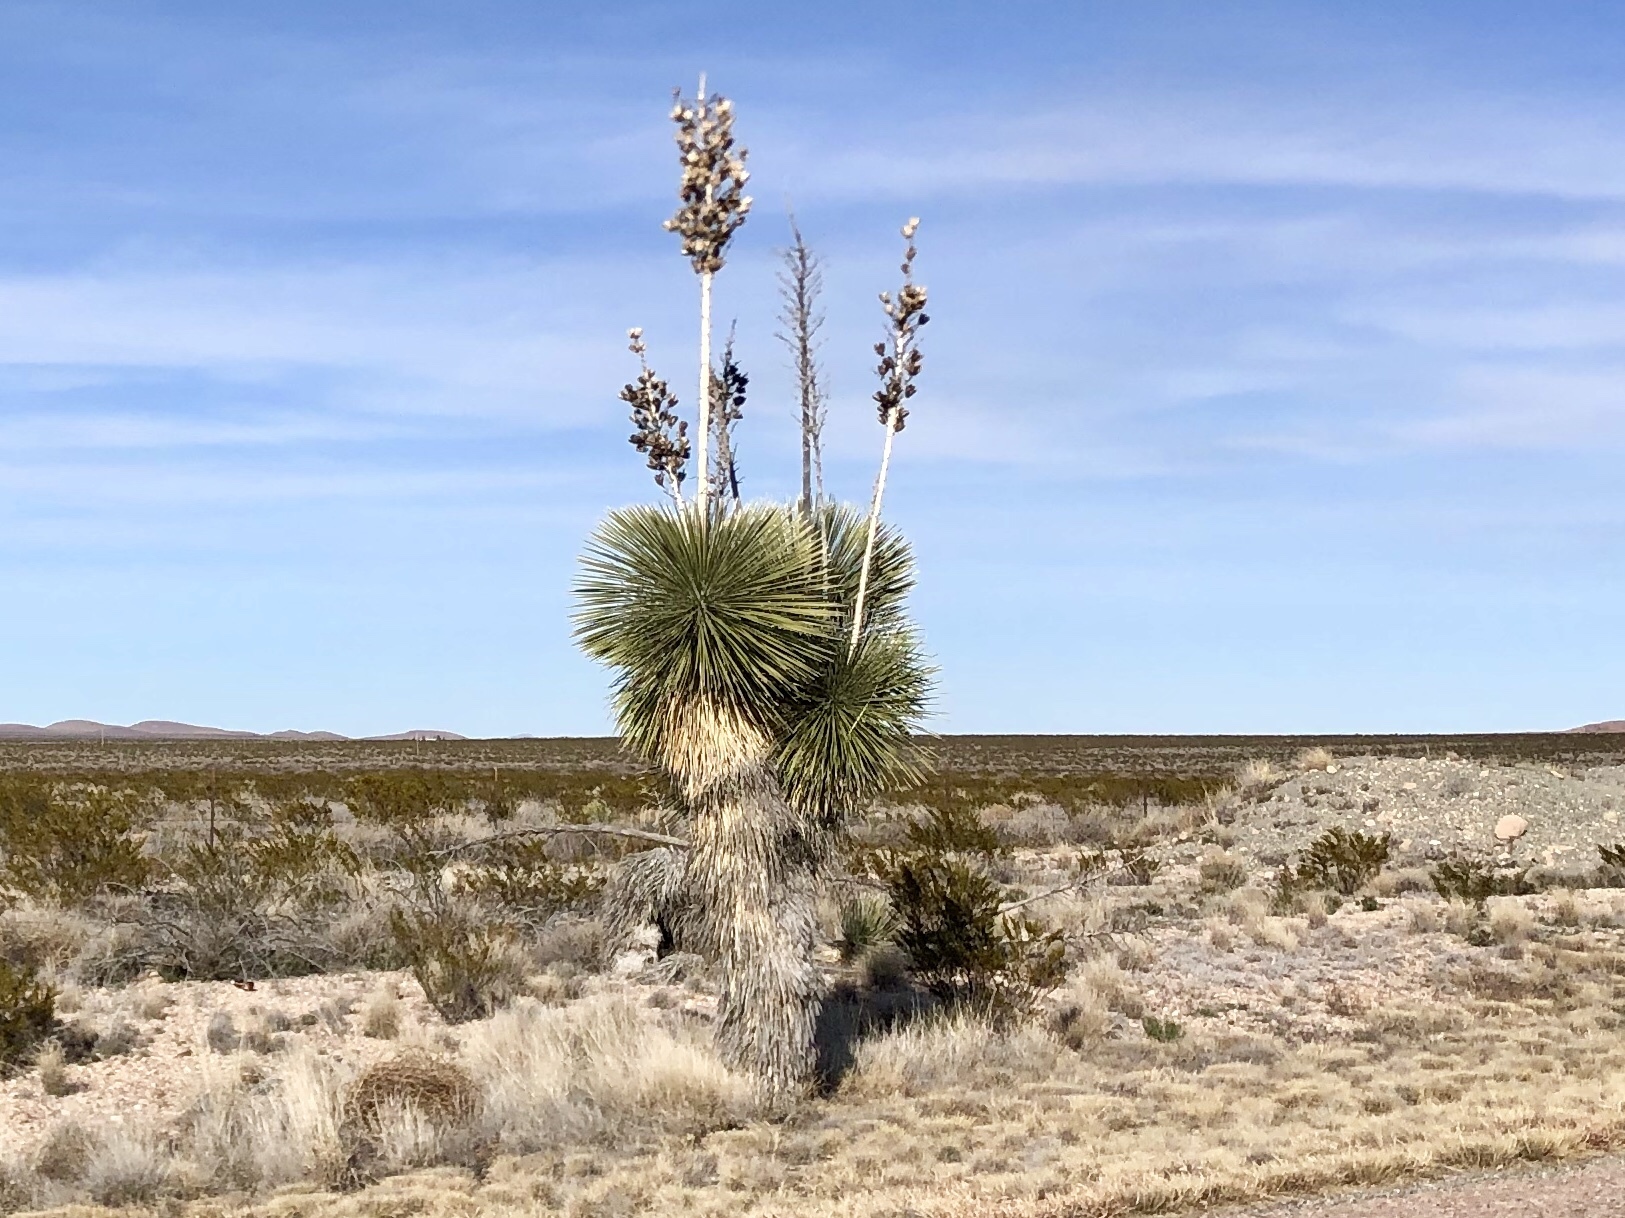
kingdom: Plantae
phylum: Tracheophyta
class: Liliopsida
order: Asparagales
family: Asparagaceae
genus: Yucca
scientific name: Yucca elata
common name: Palmella
